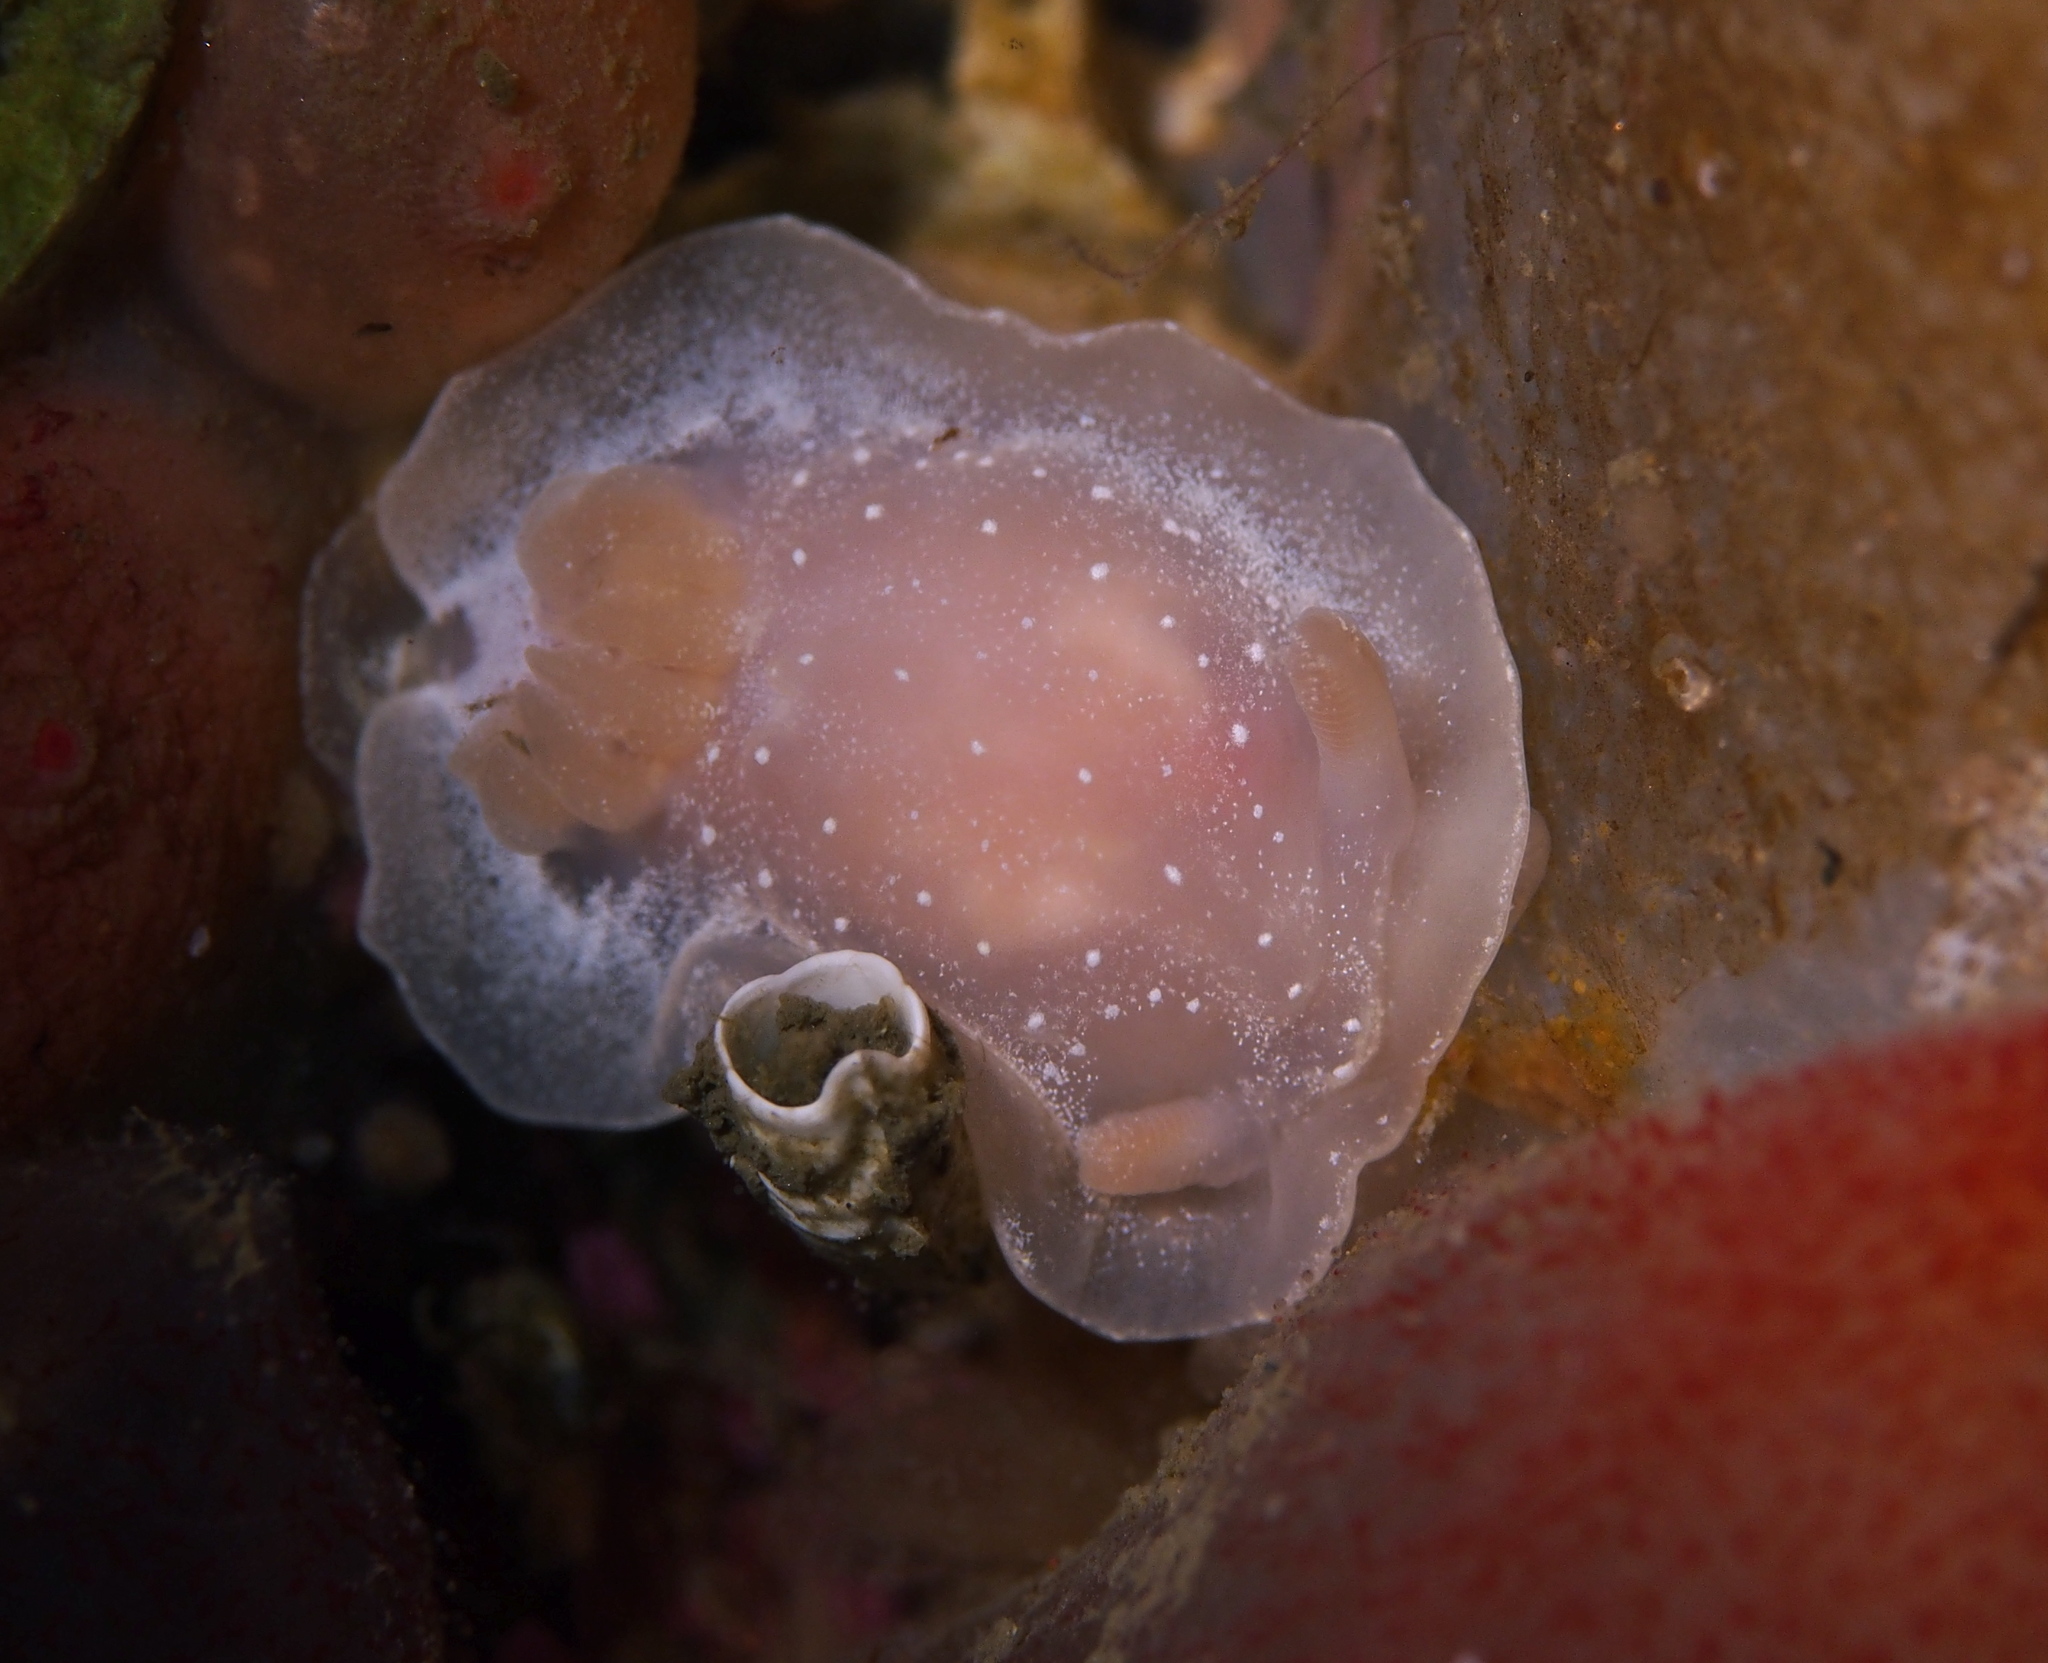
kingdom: Animalia
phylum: Mollusca
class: Gastropoda
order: Nudibranchia
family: Goniodorididae
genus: Okenia
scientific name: Okenia
